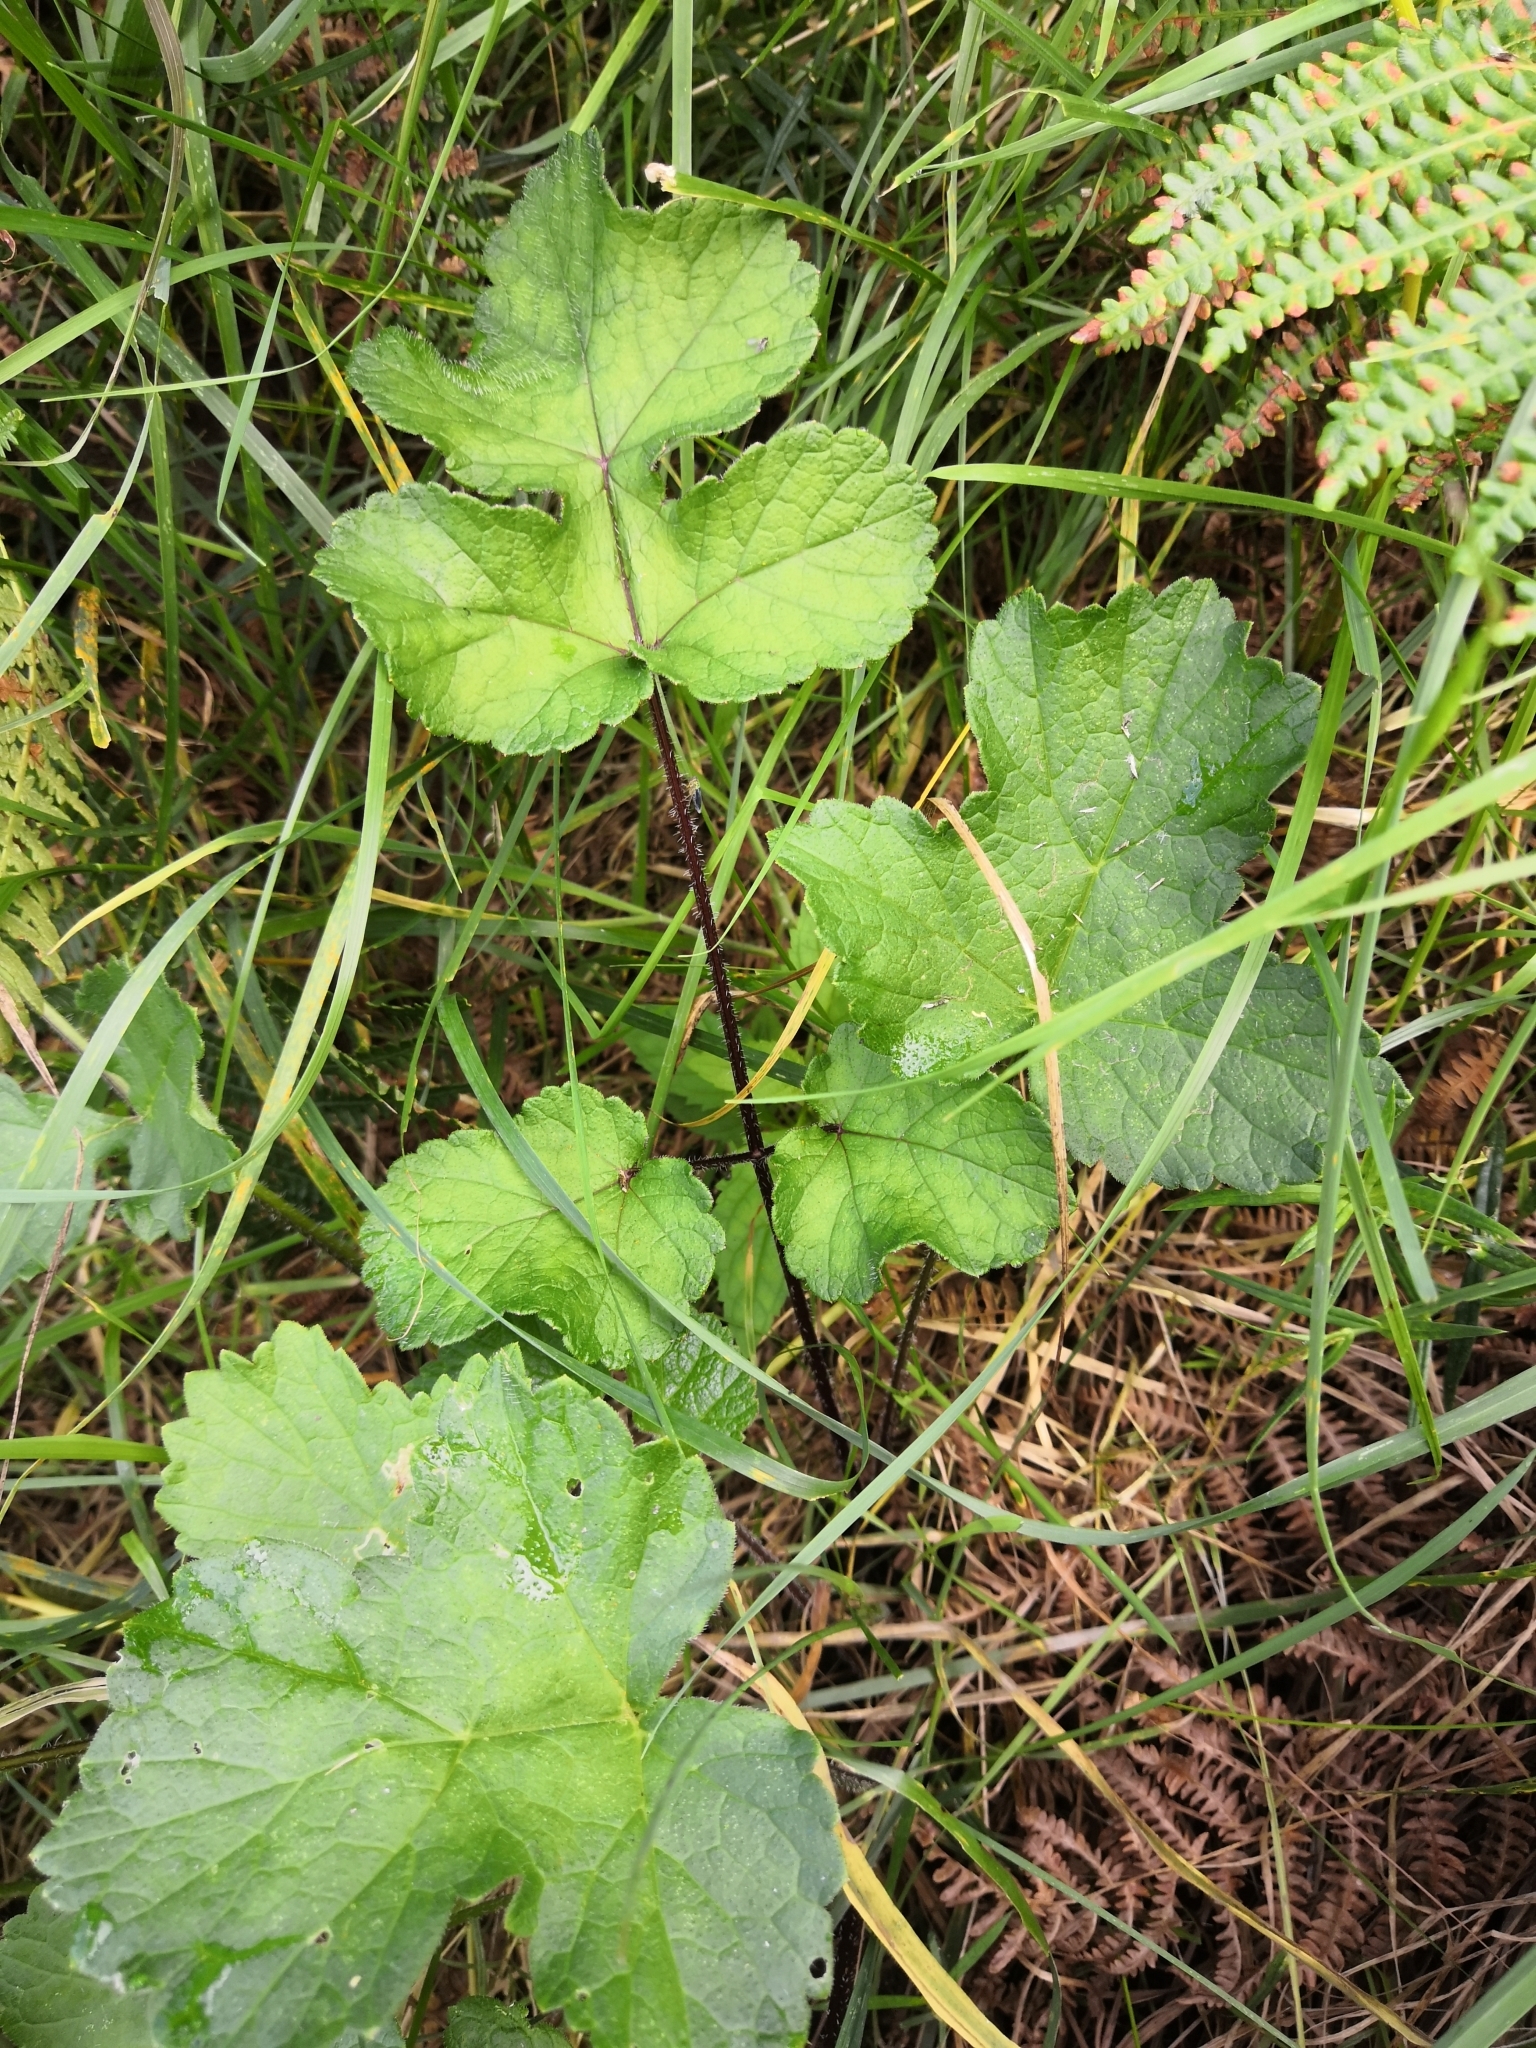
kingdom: Plantae
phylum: Tracheophyta
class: Magnoliopsida
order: Apiales
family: Apiaceae
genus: Heracleum
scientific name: Heracleum sphondylium
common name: Hogweed
